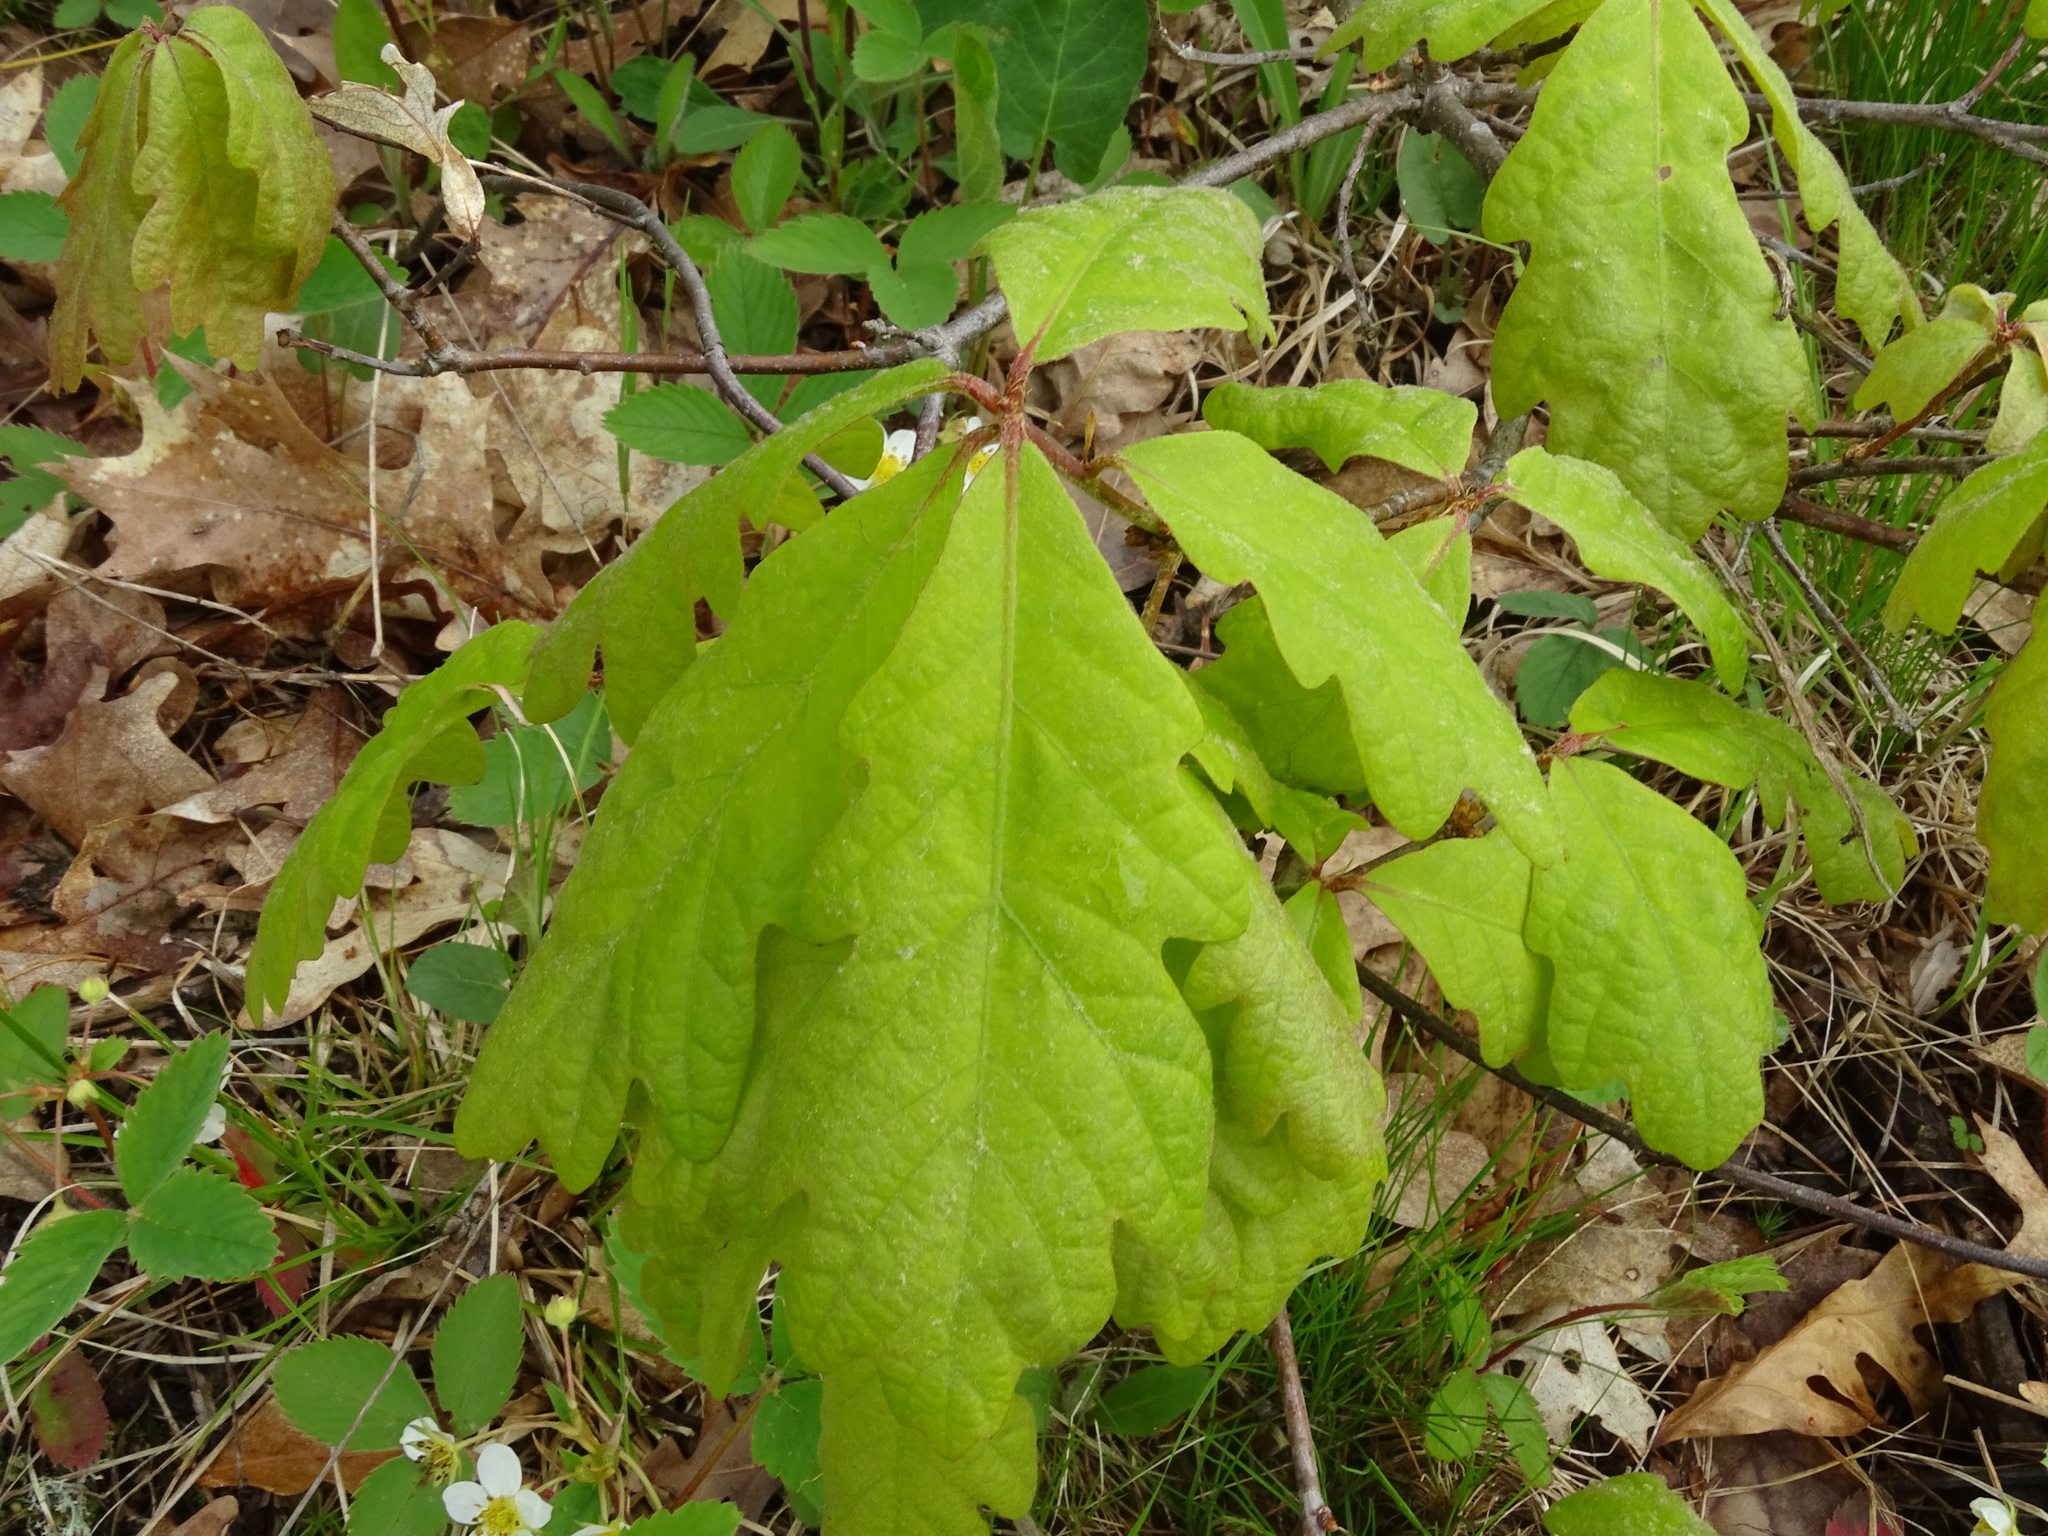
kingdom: Plantae
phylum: Tracheophyta
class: Magnoliopsida
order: Fagales
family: Fagaceae
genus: Quercus
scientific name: Quercus alba
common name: White oak
